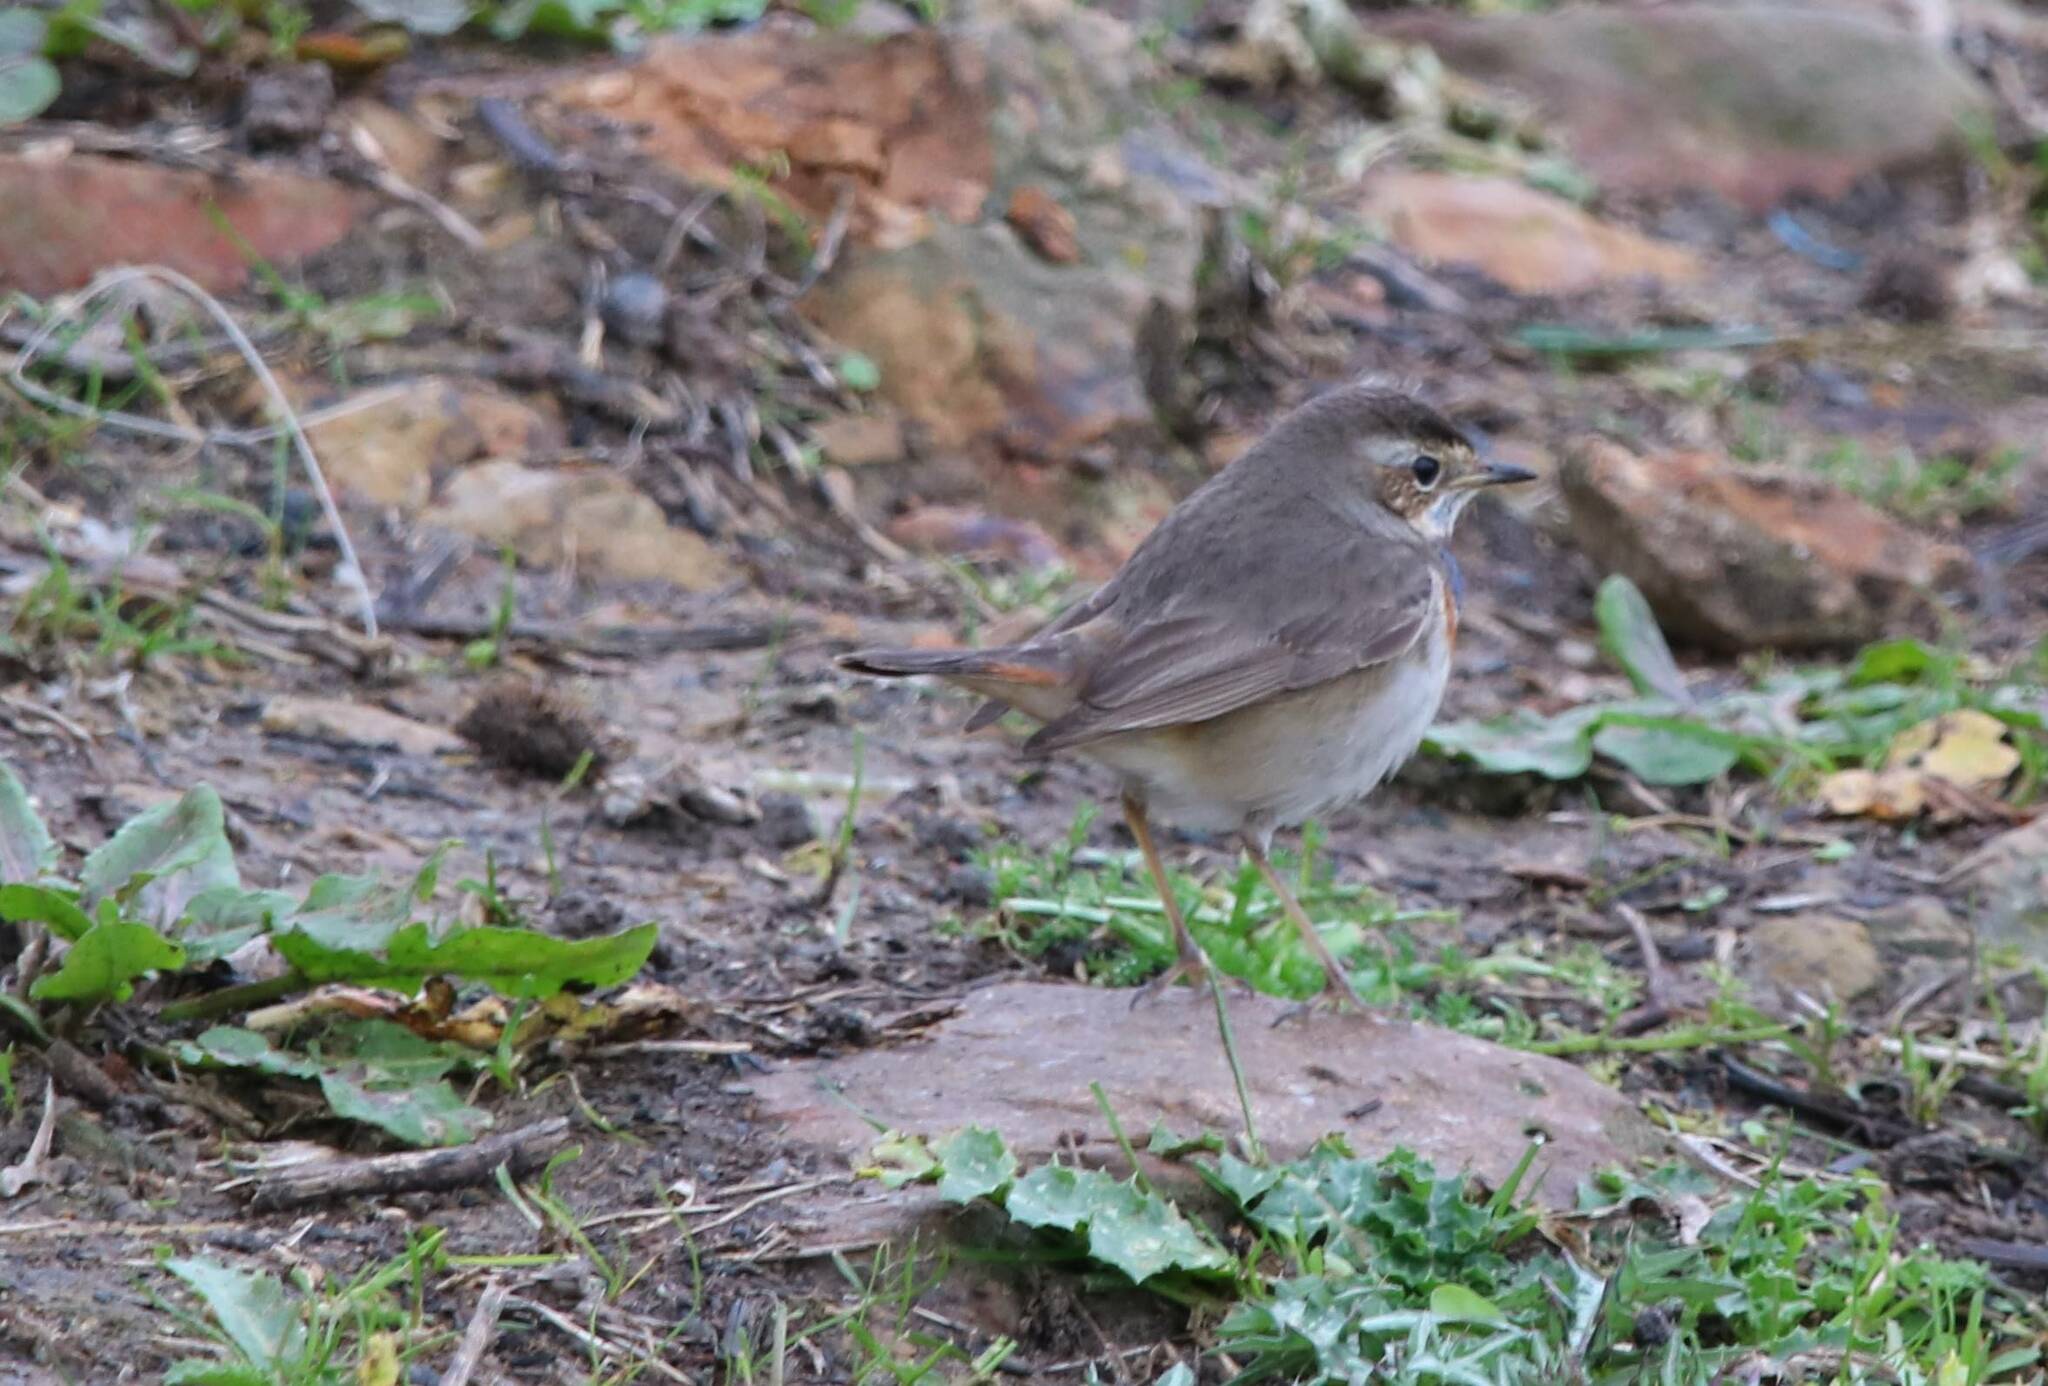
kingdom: Animalia
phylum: Chordata
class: Aves
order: Passeriformes
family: Muscicapidae
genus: Luscinia
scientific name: Luscinia svecica
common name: Bluethroat
